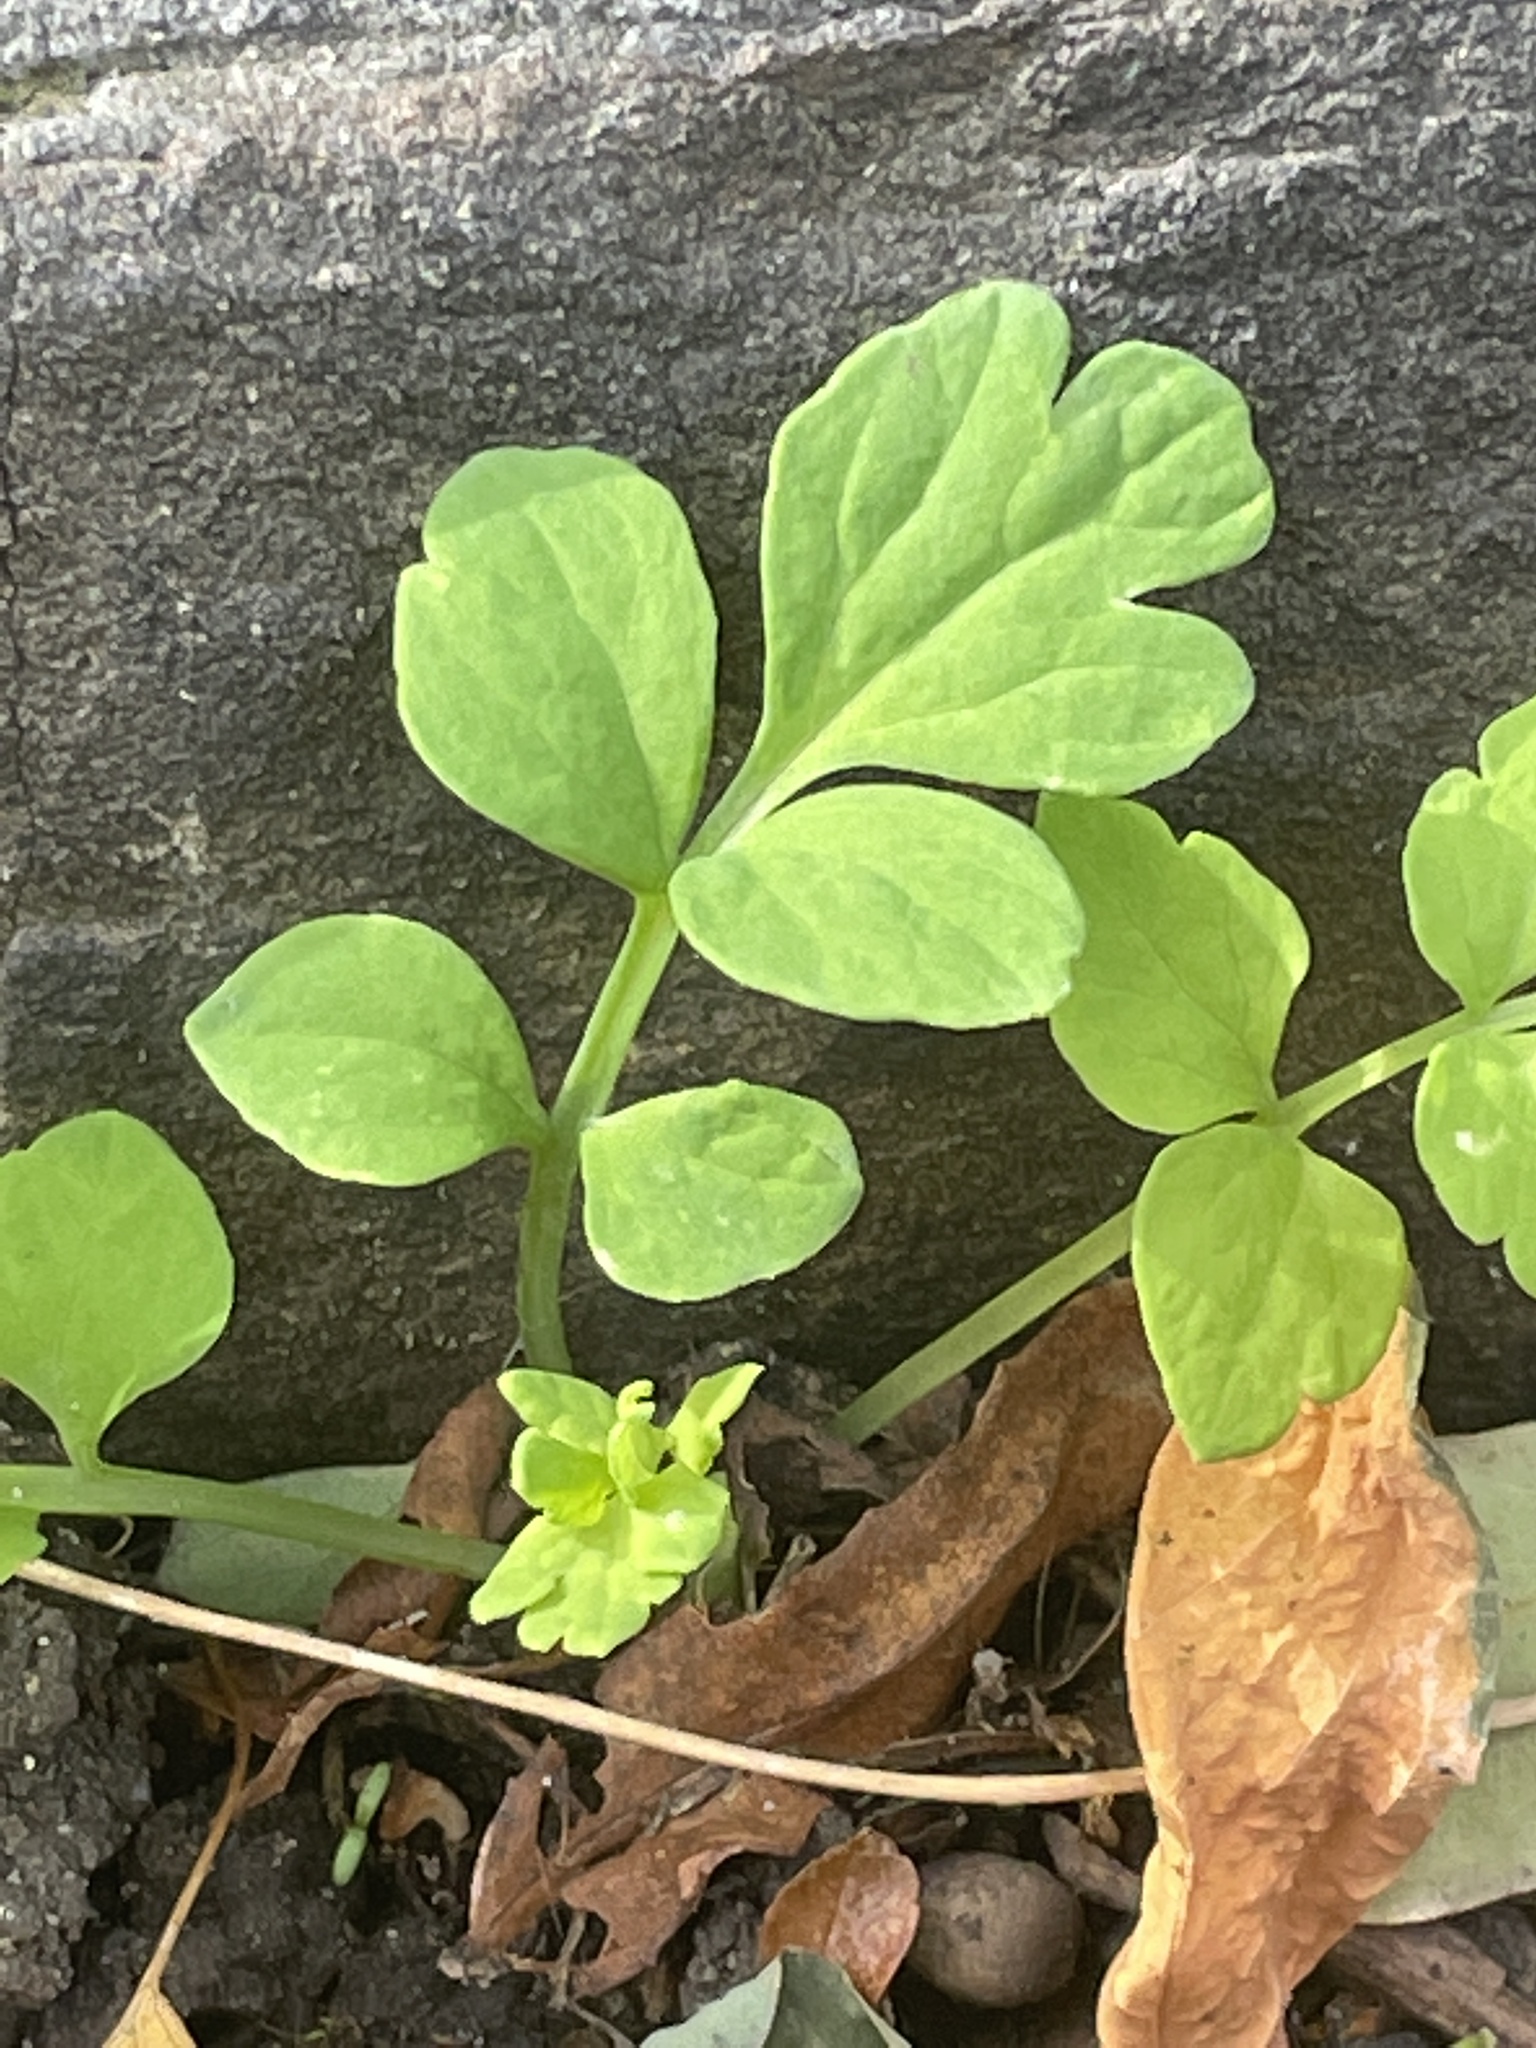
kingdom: Plantae
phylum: Tracheophyta
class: Magnoliopsida
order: Ranunculales
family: Papaveraceae
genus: Chelidonium
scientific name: Chelidonium majus
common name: Greater celandine
